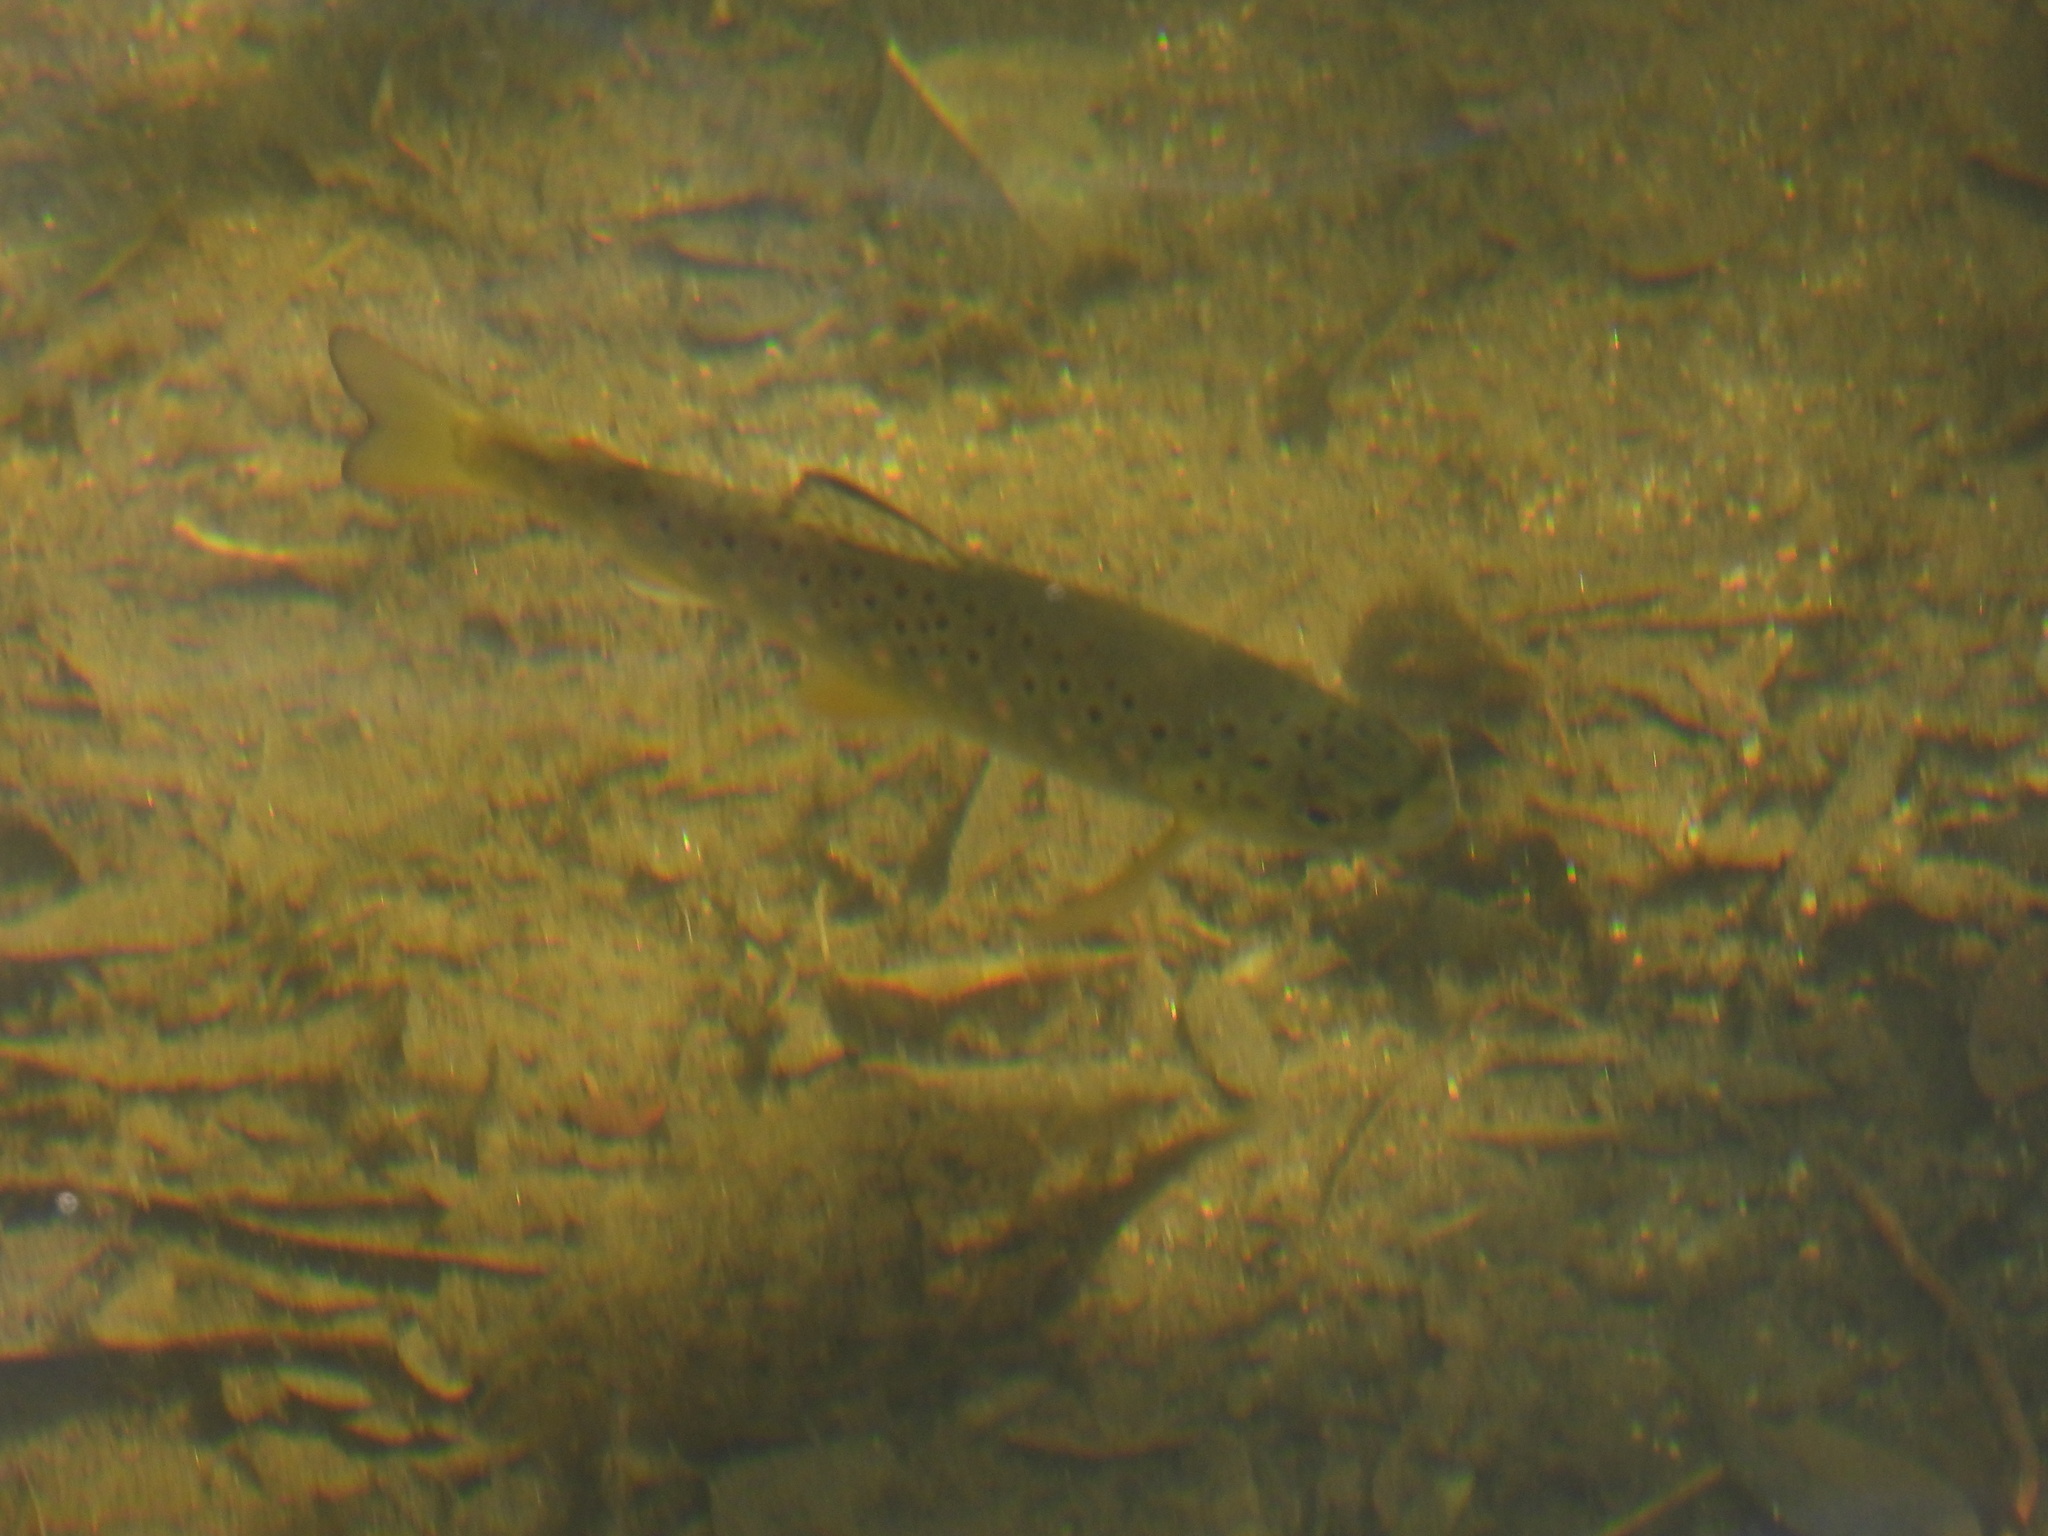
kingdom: Animalia
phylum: Chordata
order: Salmoniformes
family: Salmonidae
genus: Salmo
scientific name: Salmo trutta
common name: Brown trout
